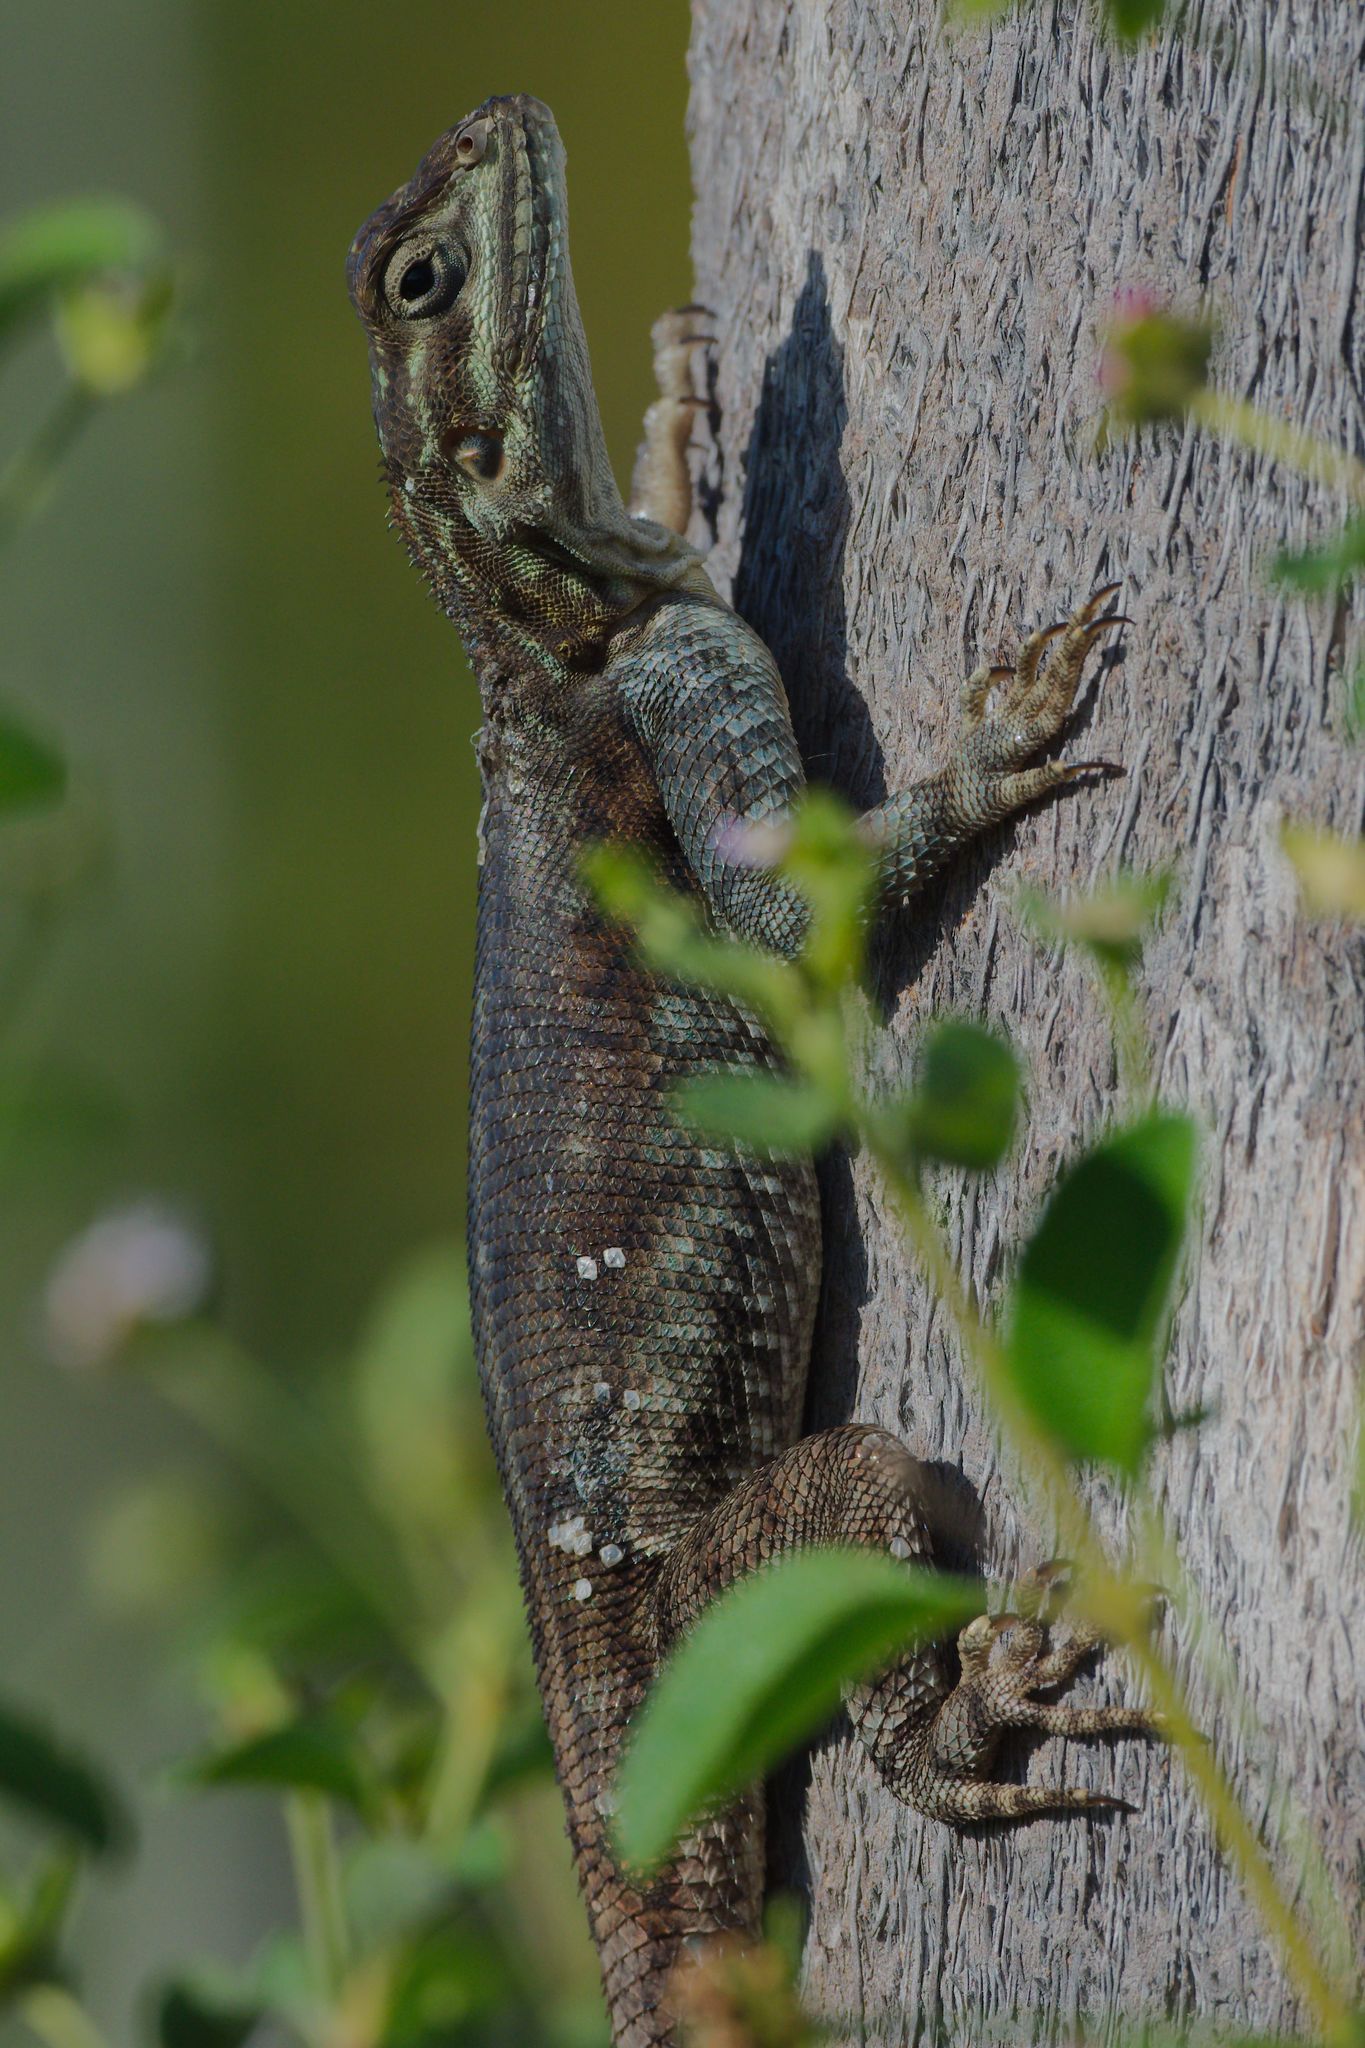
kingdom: Animalia
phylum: Chordata
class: Squamata
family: Agamidae
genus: Agama
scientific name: Agama picticauda
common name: Red-headed agama
